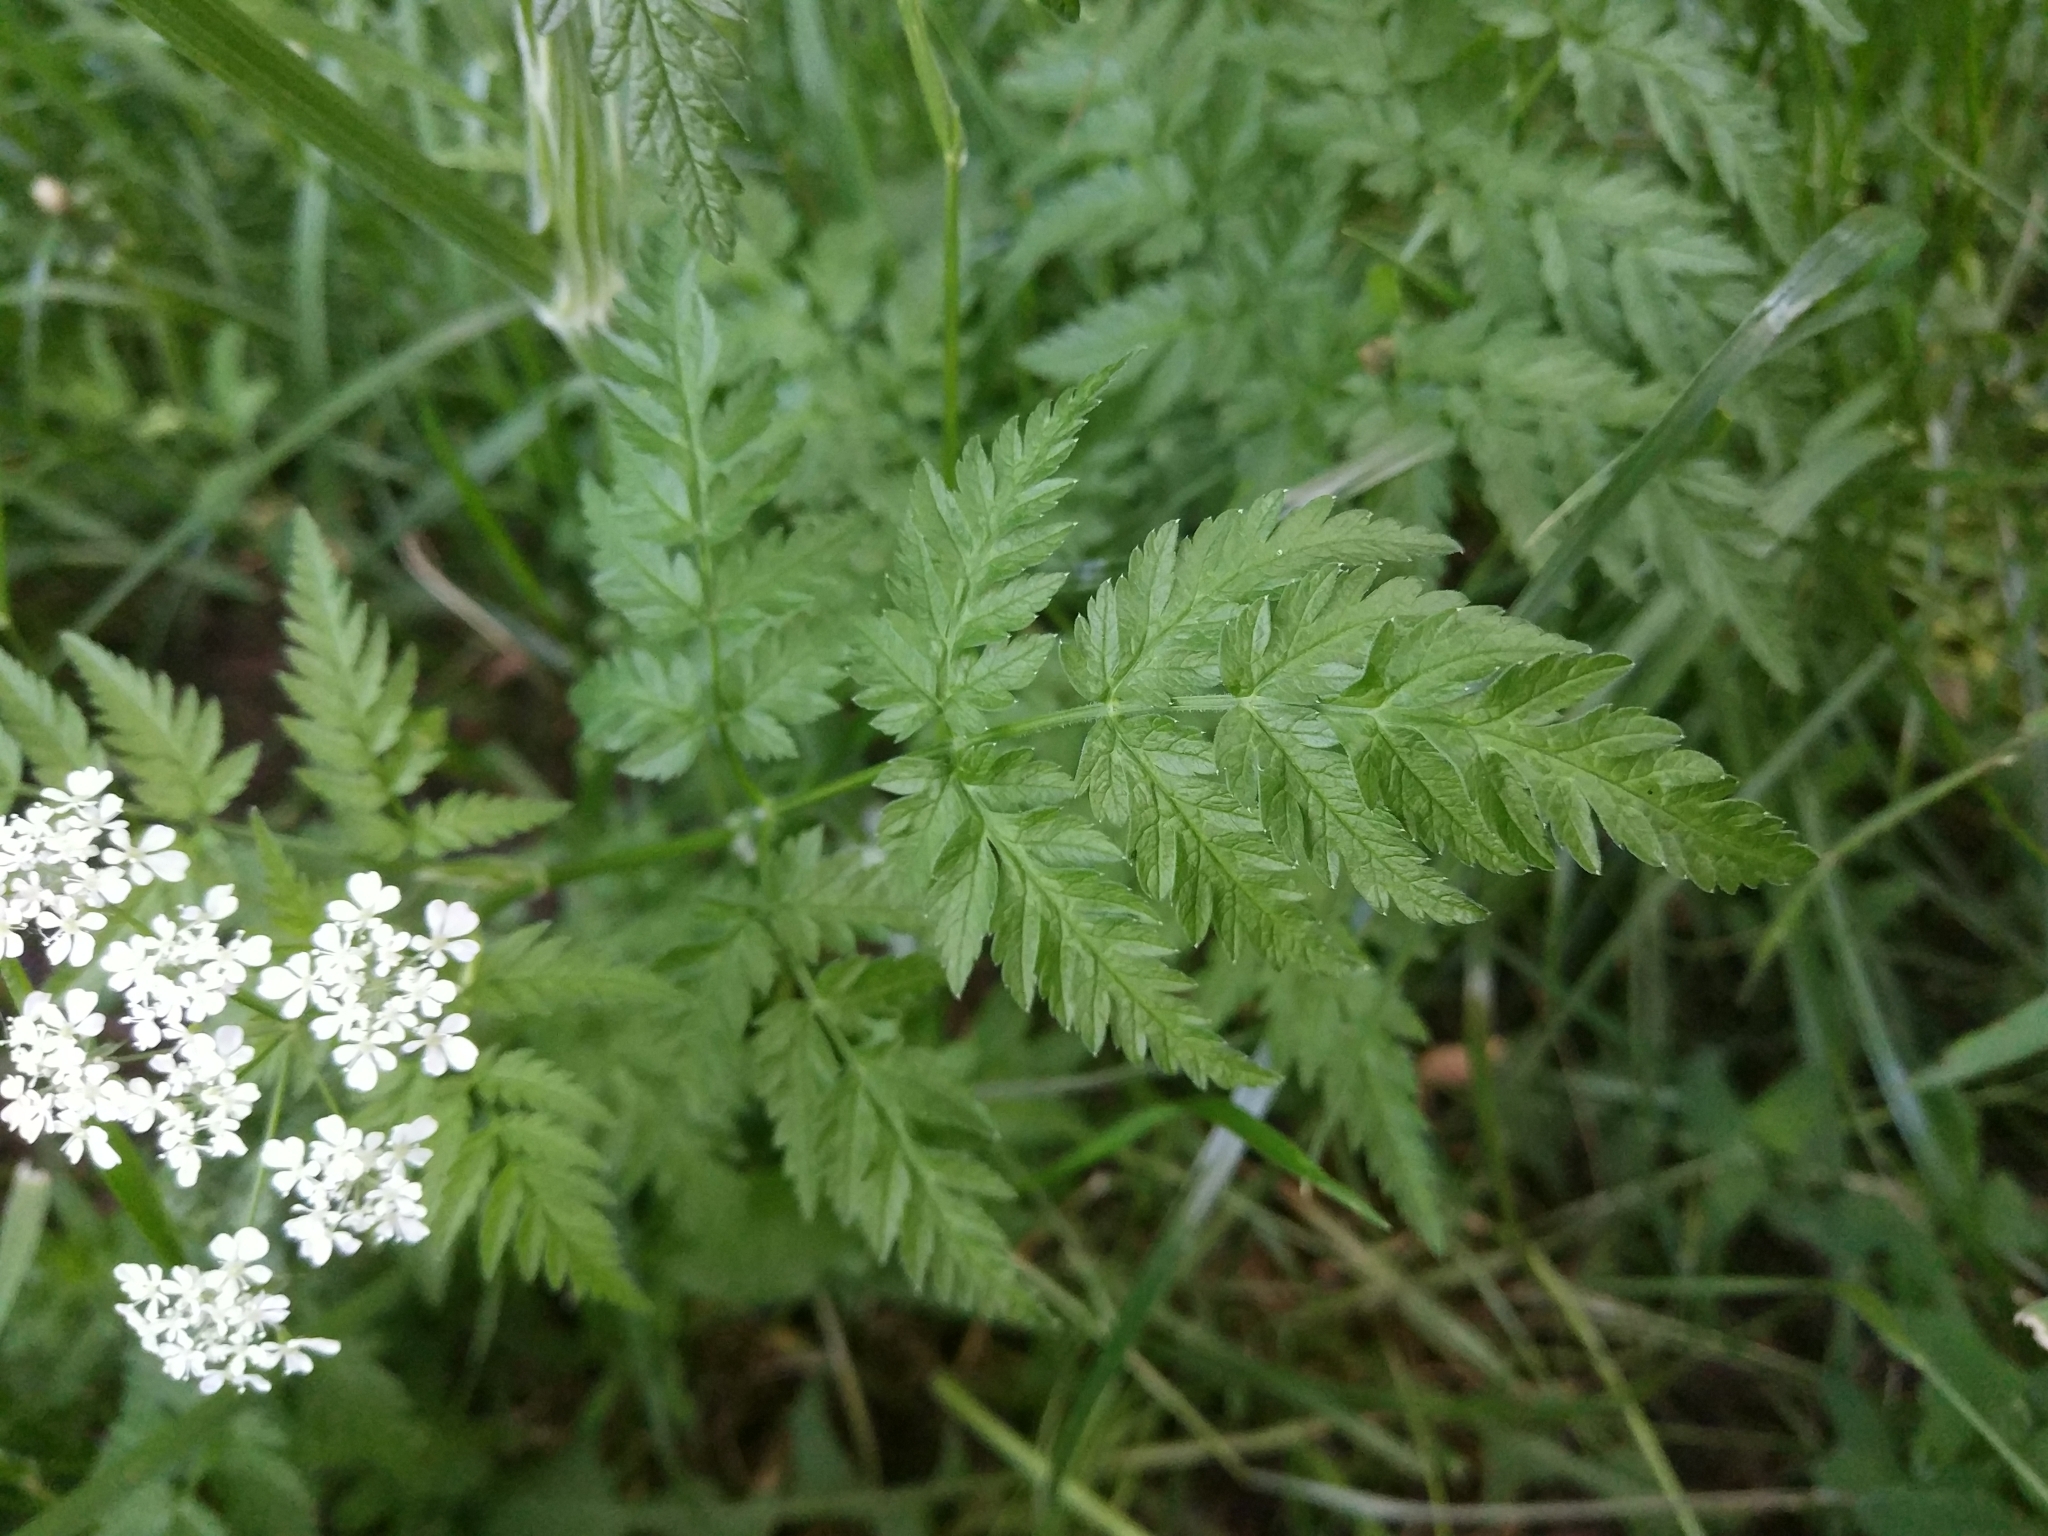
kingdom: Plantae
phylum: Tracheophyta
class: Magnoliopsida
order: Apiales
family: Apiaceae
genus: Anthriscus
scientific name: Anthriscus sylvestris
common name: Cow parsley
